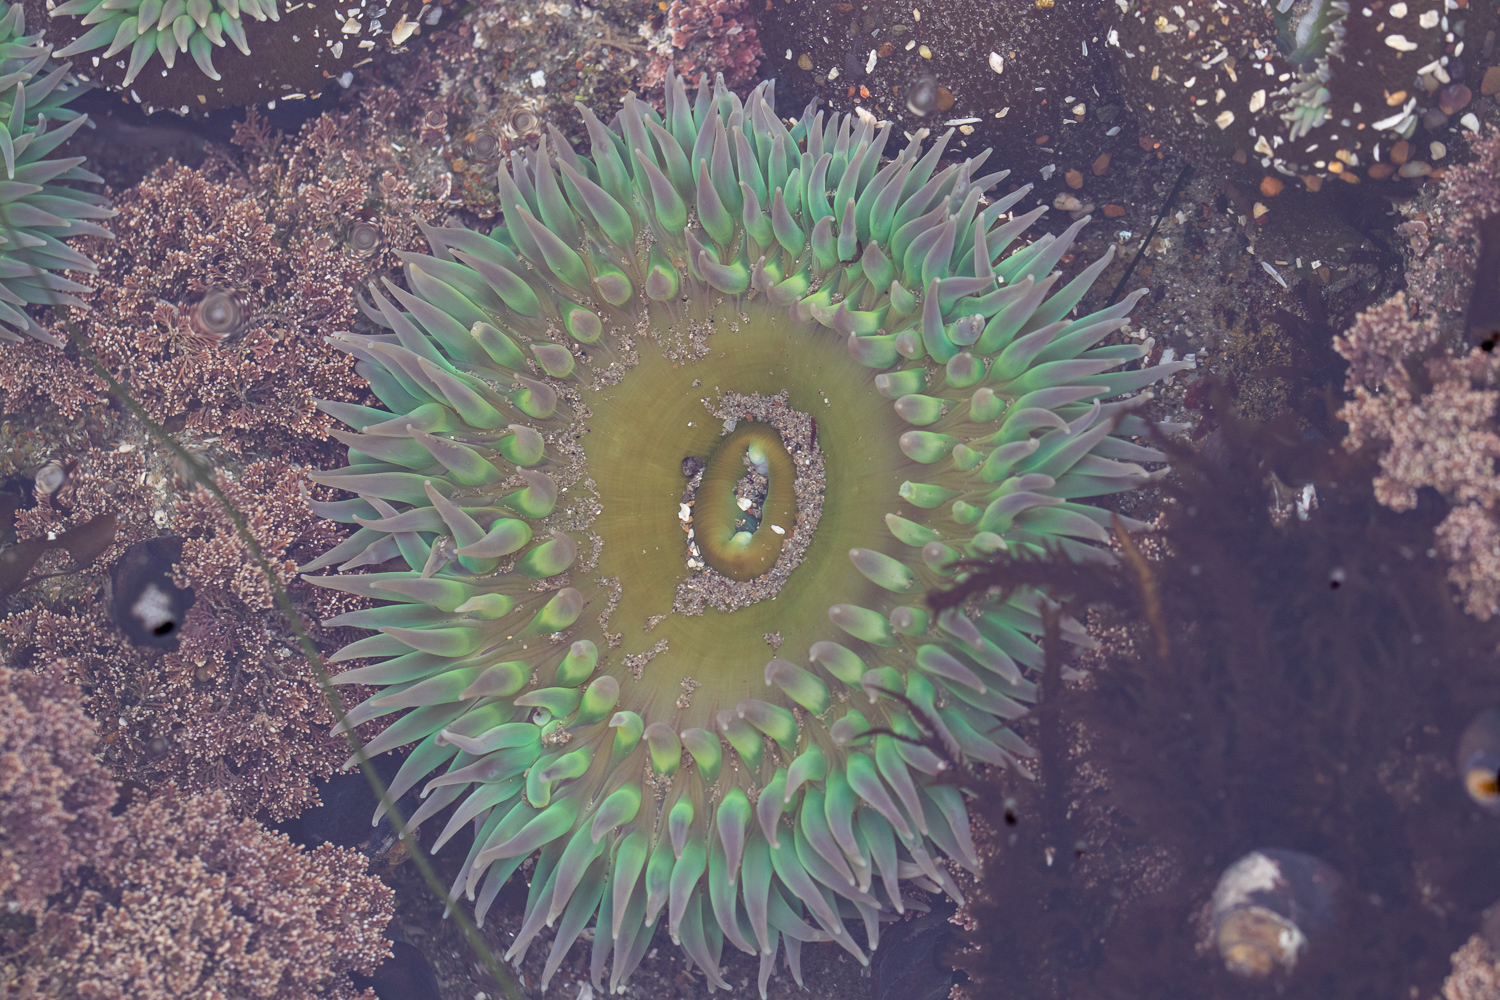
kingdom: Animalia
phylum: Cnidaria
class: Anthozoa
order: Actiniaria
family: Actiniidae
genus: Anthopleura
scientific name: Anthopleura xanthogrammica
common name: Giant green anemone
